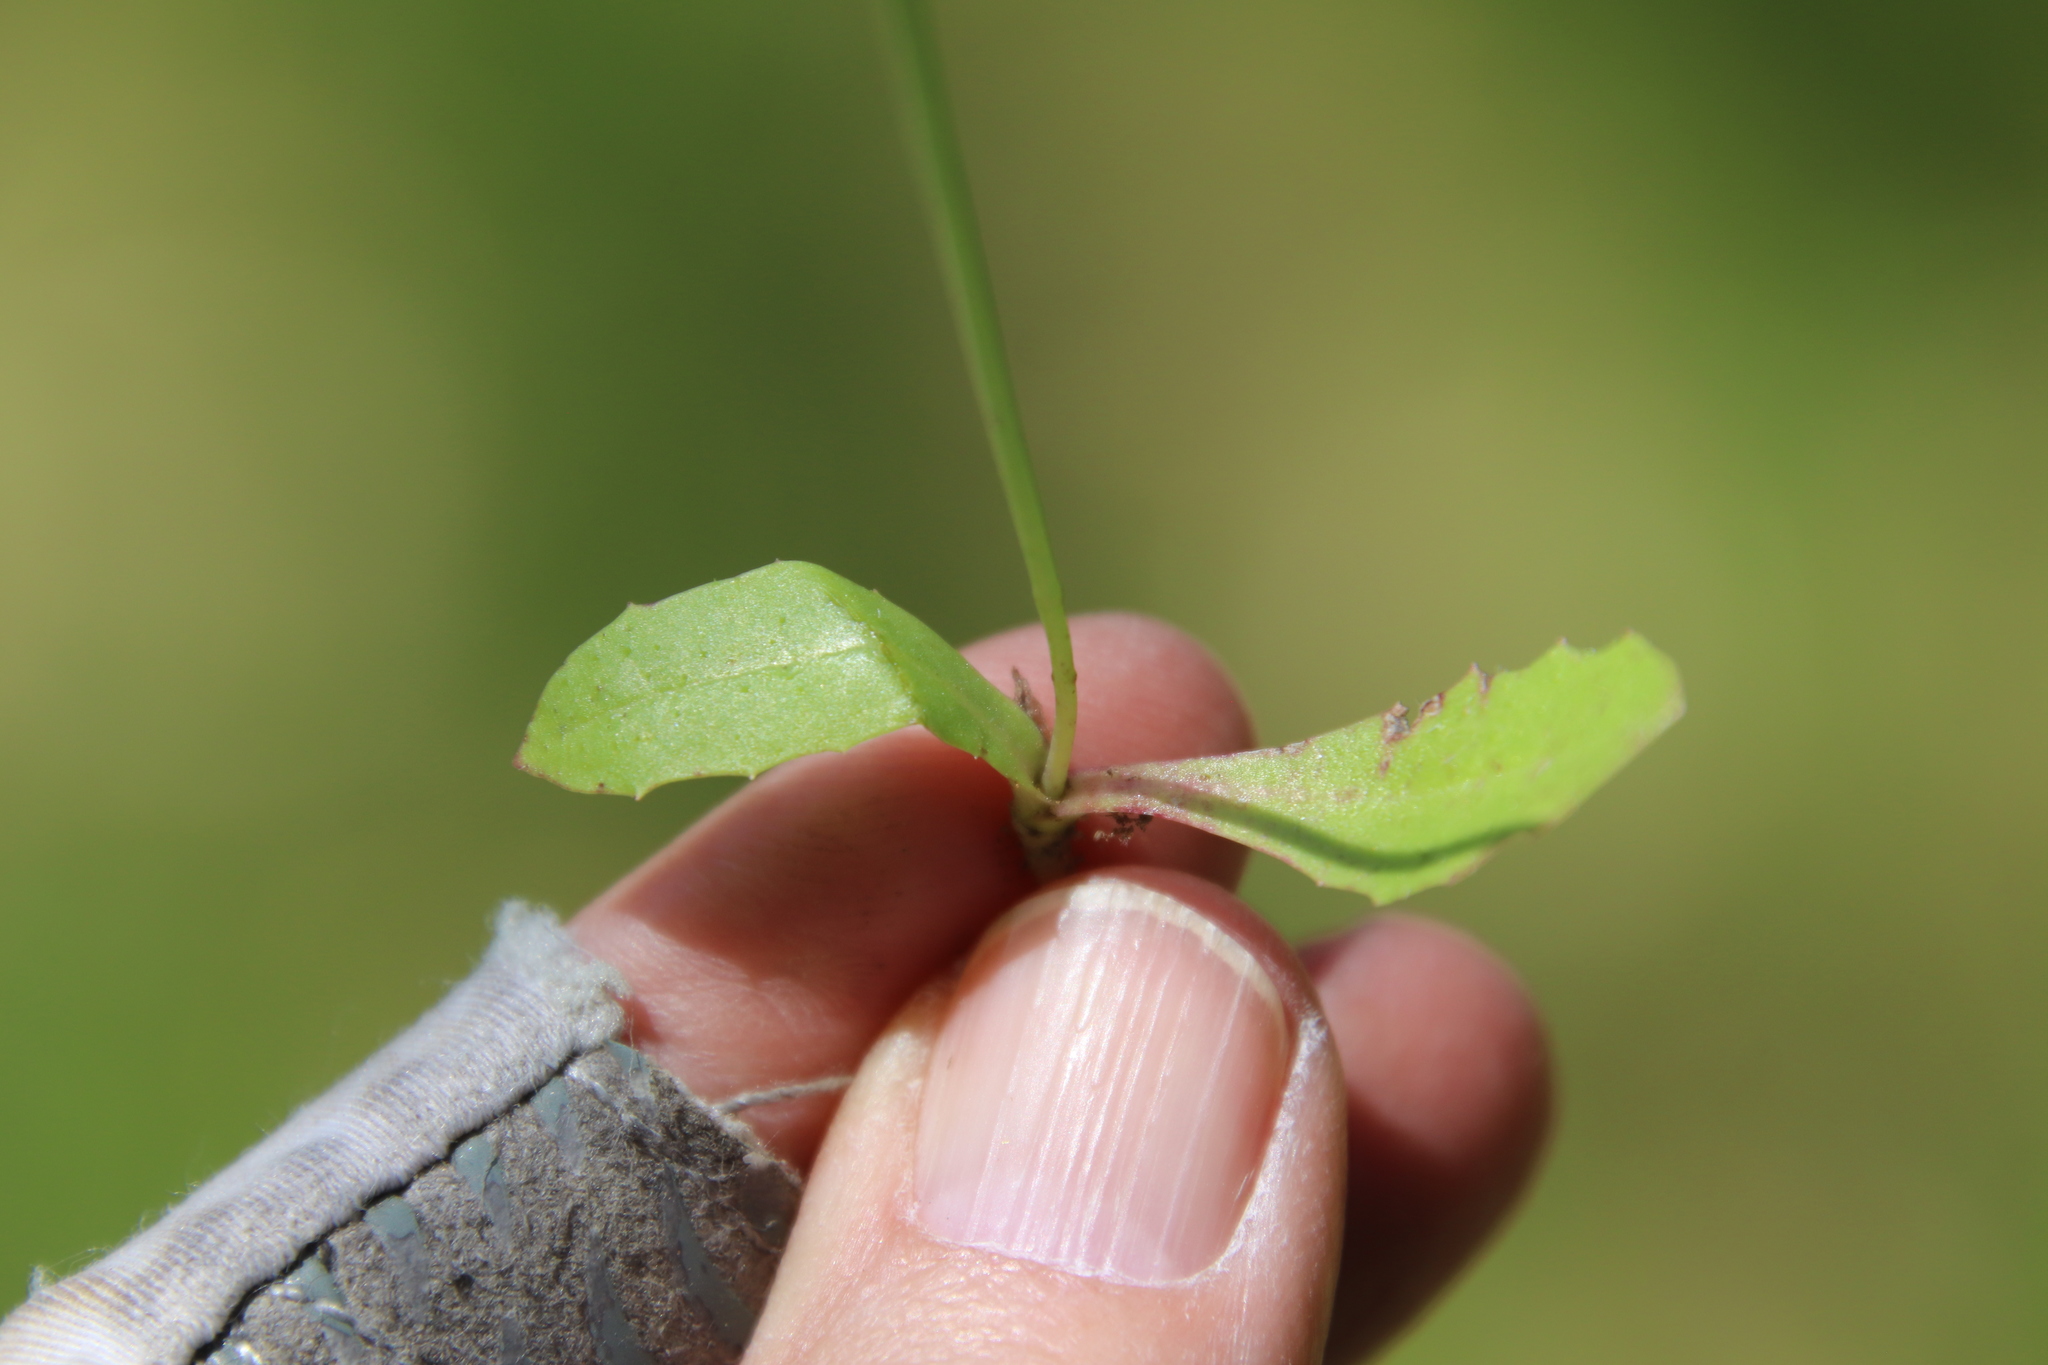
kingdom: Plantae
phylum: Tracheophyta
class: Magnoliopsida
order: Asterales
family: Asteraceae
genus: Hypochaeris
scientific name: Hypochaeris glabra
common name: Smooth catsear
